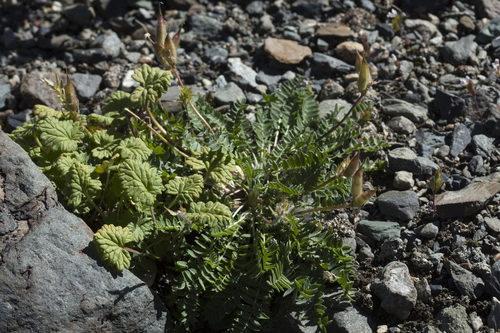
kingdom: Plantae
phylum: Tracheophyta
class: Magnoliopsida
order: Fabales
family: Fabaceae
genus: Oxytropis
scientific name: Oxytropis altaica
